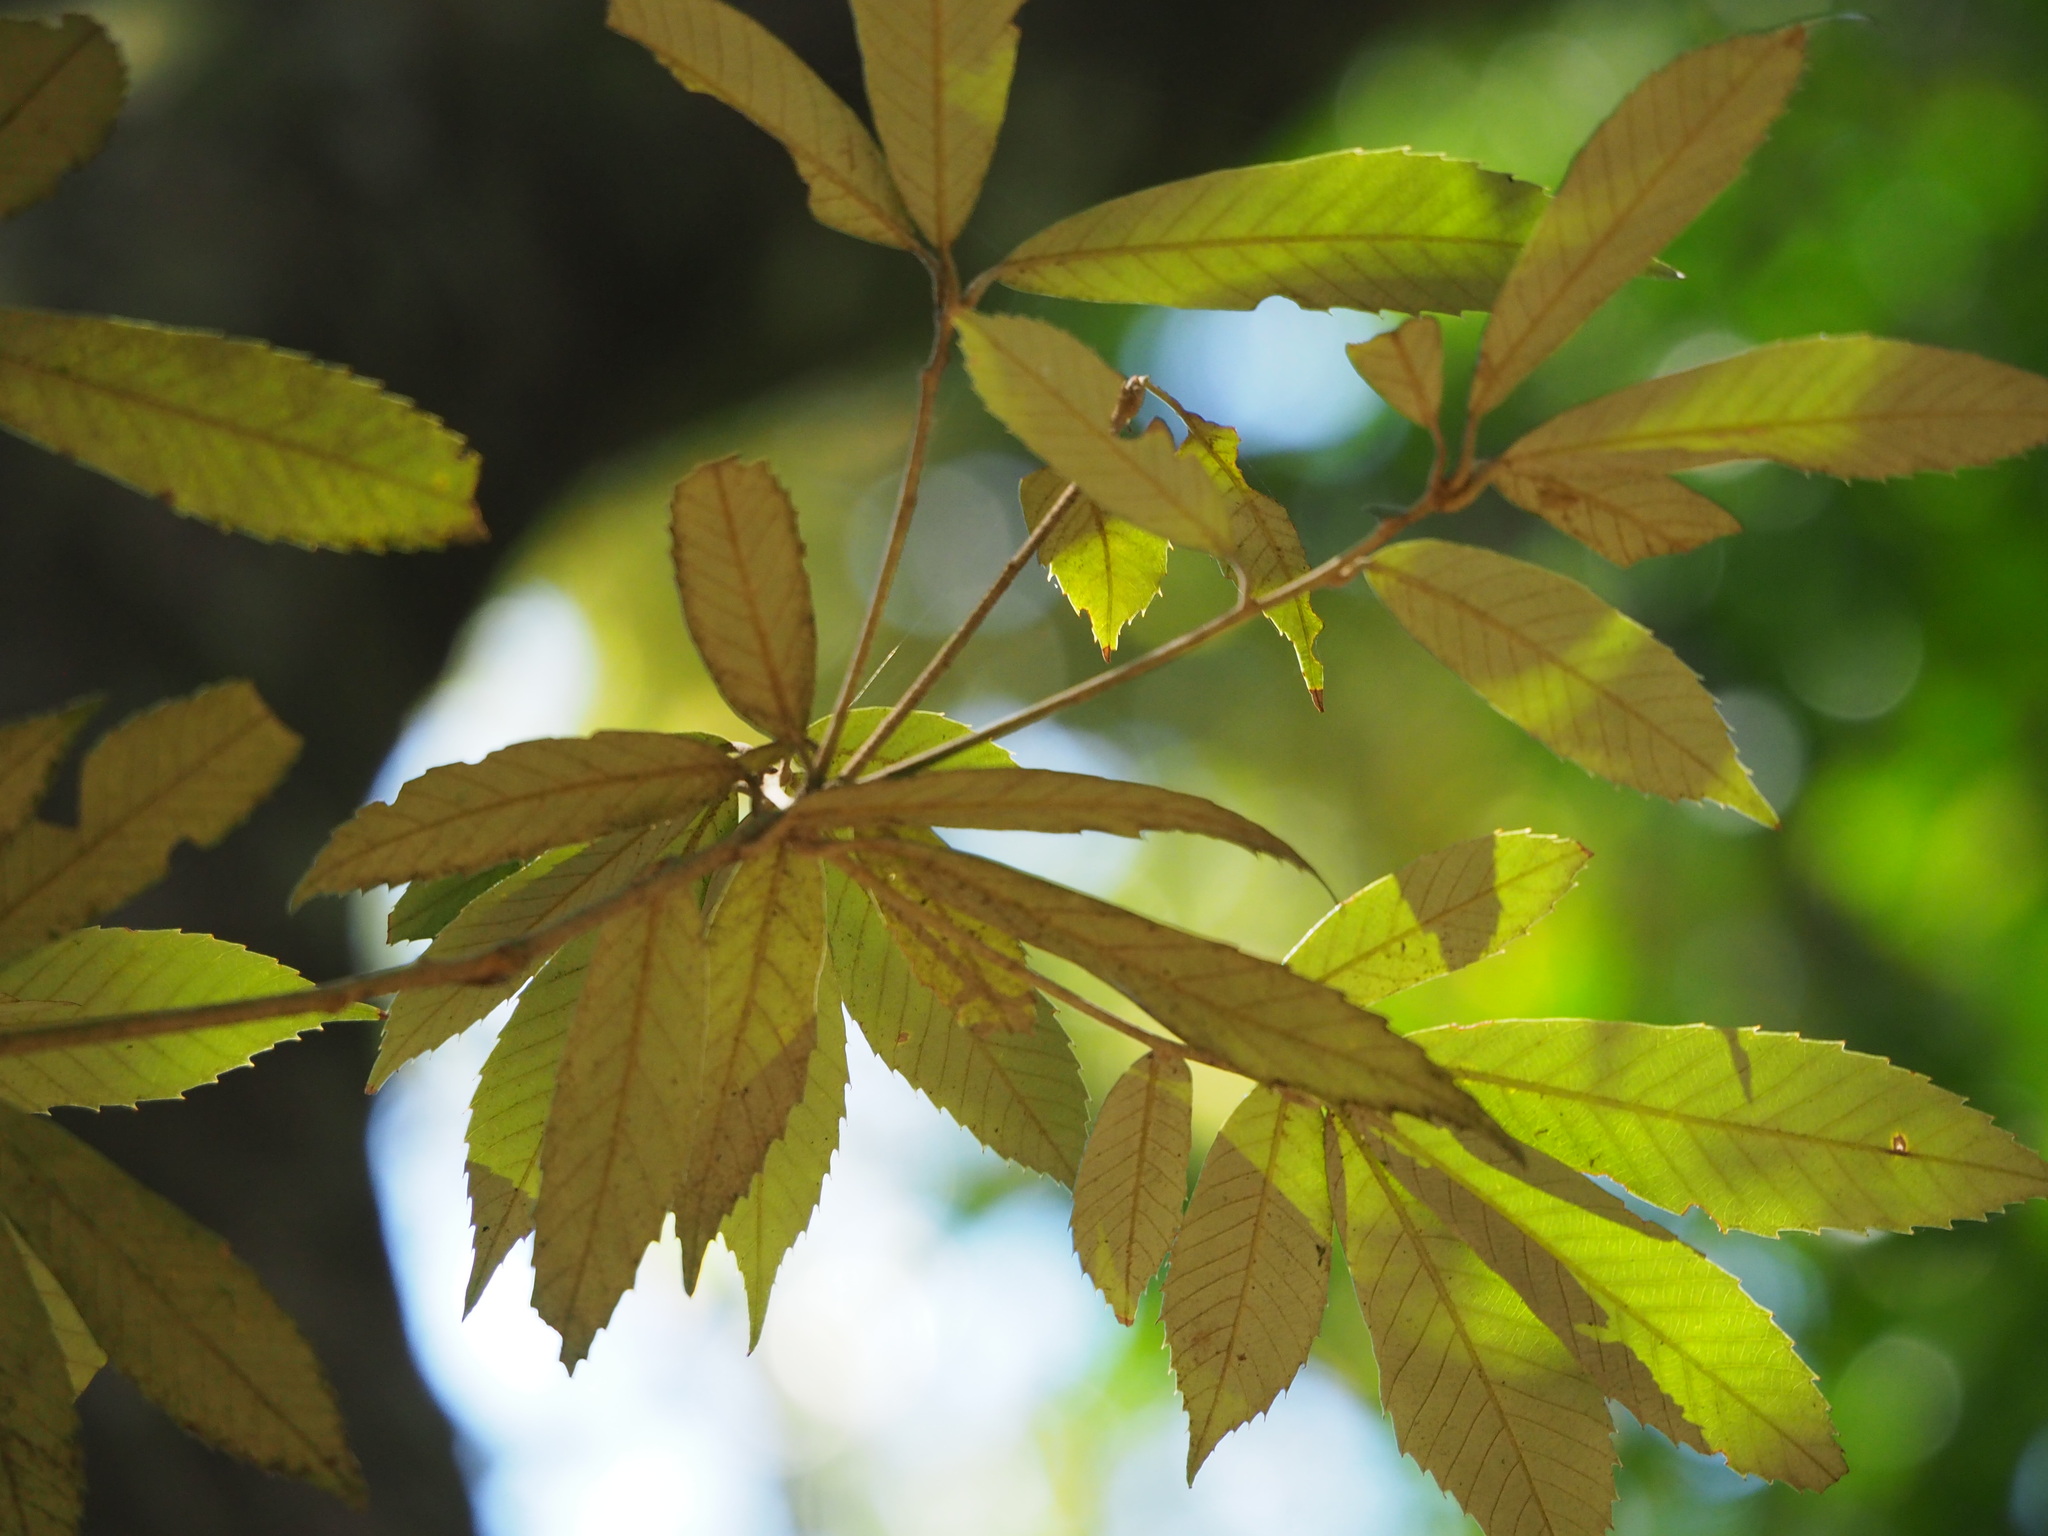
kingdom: Plantae
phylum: Tracheophyta
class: Magnoliopsida
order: Fagales
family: Fagaceae
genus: Quercus
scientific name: Quercus gilva
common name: Redbark oak
